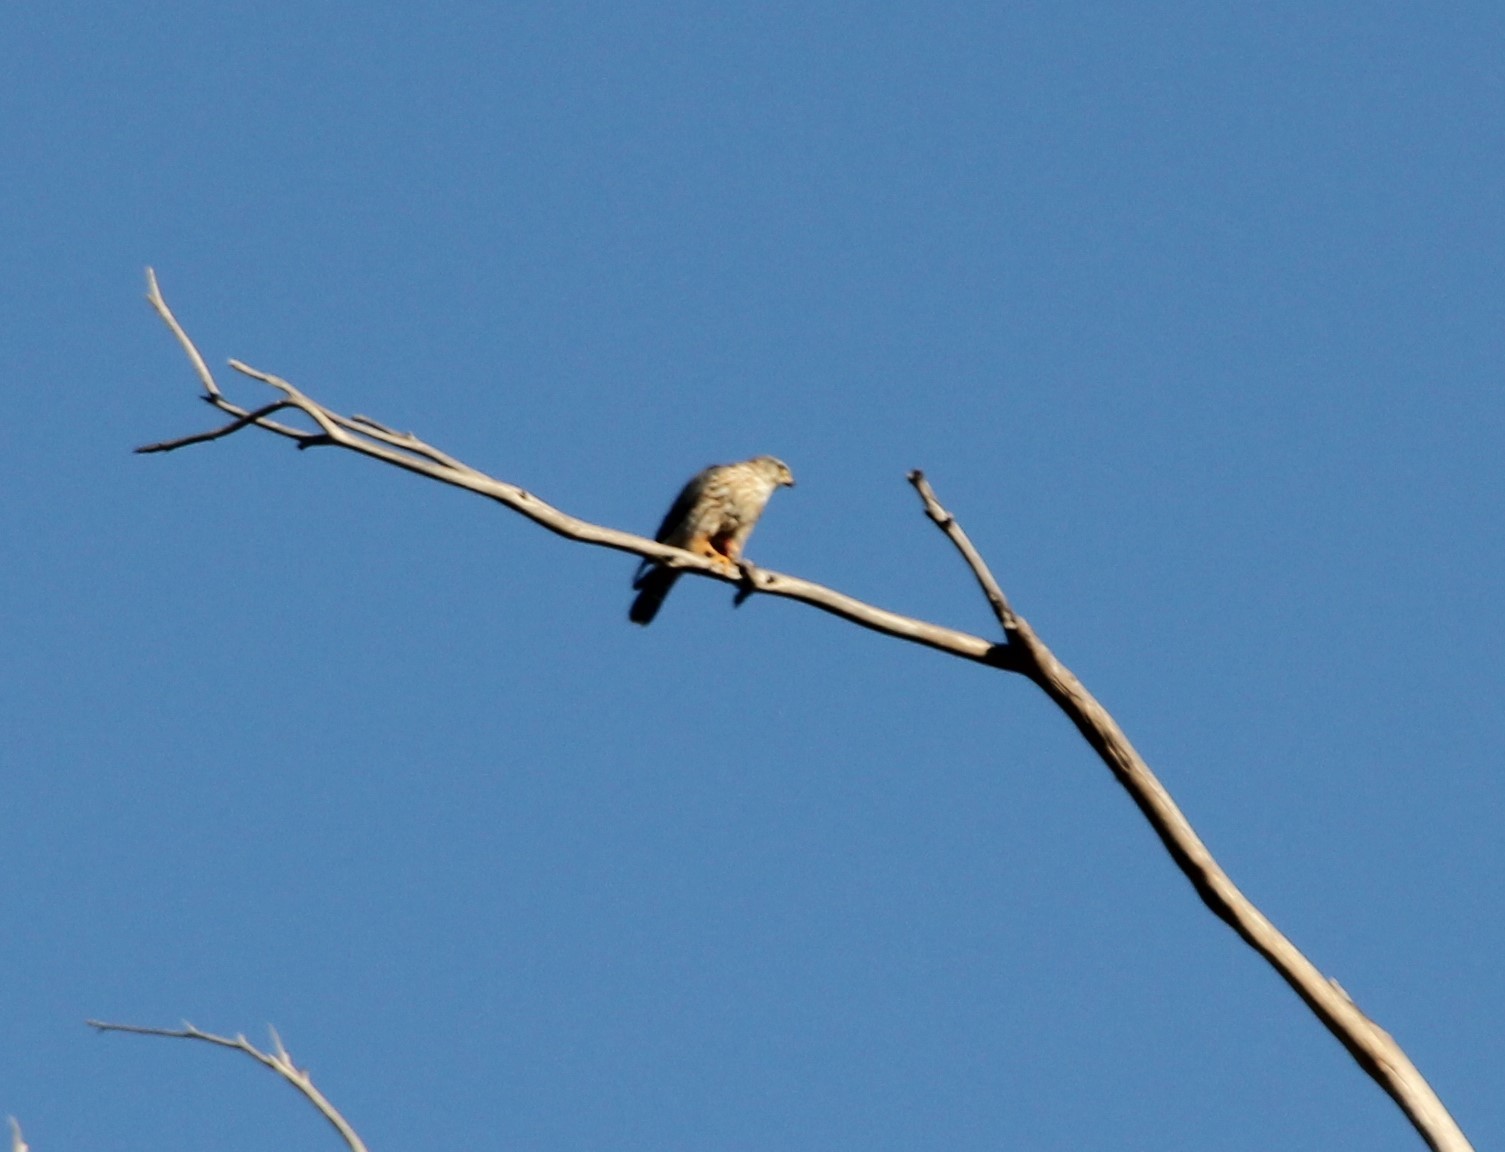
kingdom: Animalia
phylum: Chordata
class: Aves
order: Falconiformes
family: Falconidae
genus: Falco
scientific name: Falco columbarius
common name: Merlin
